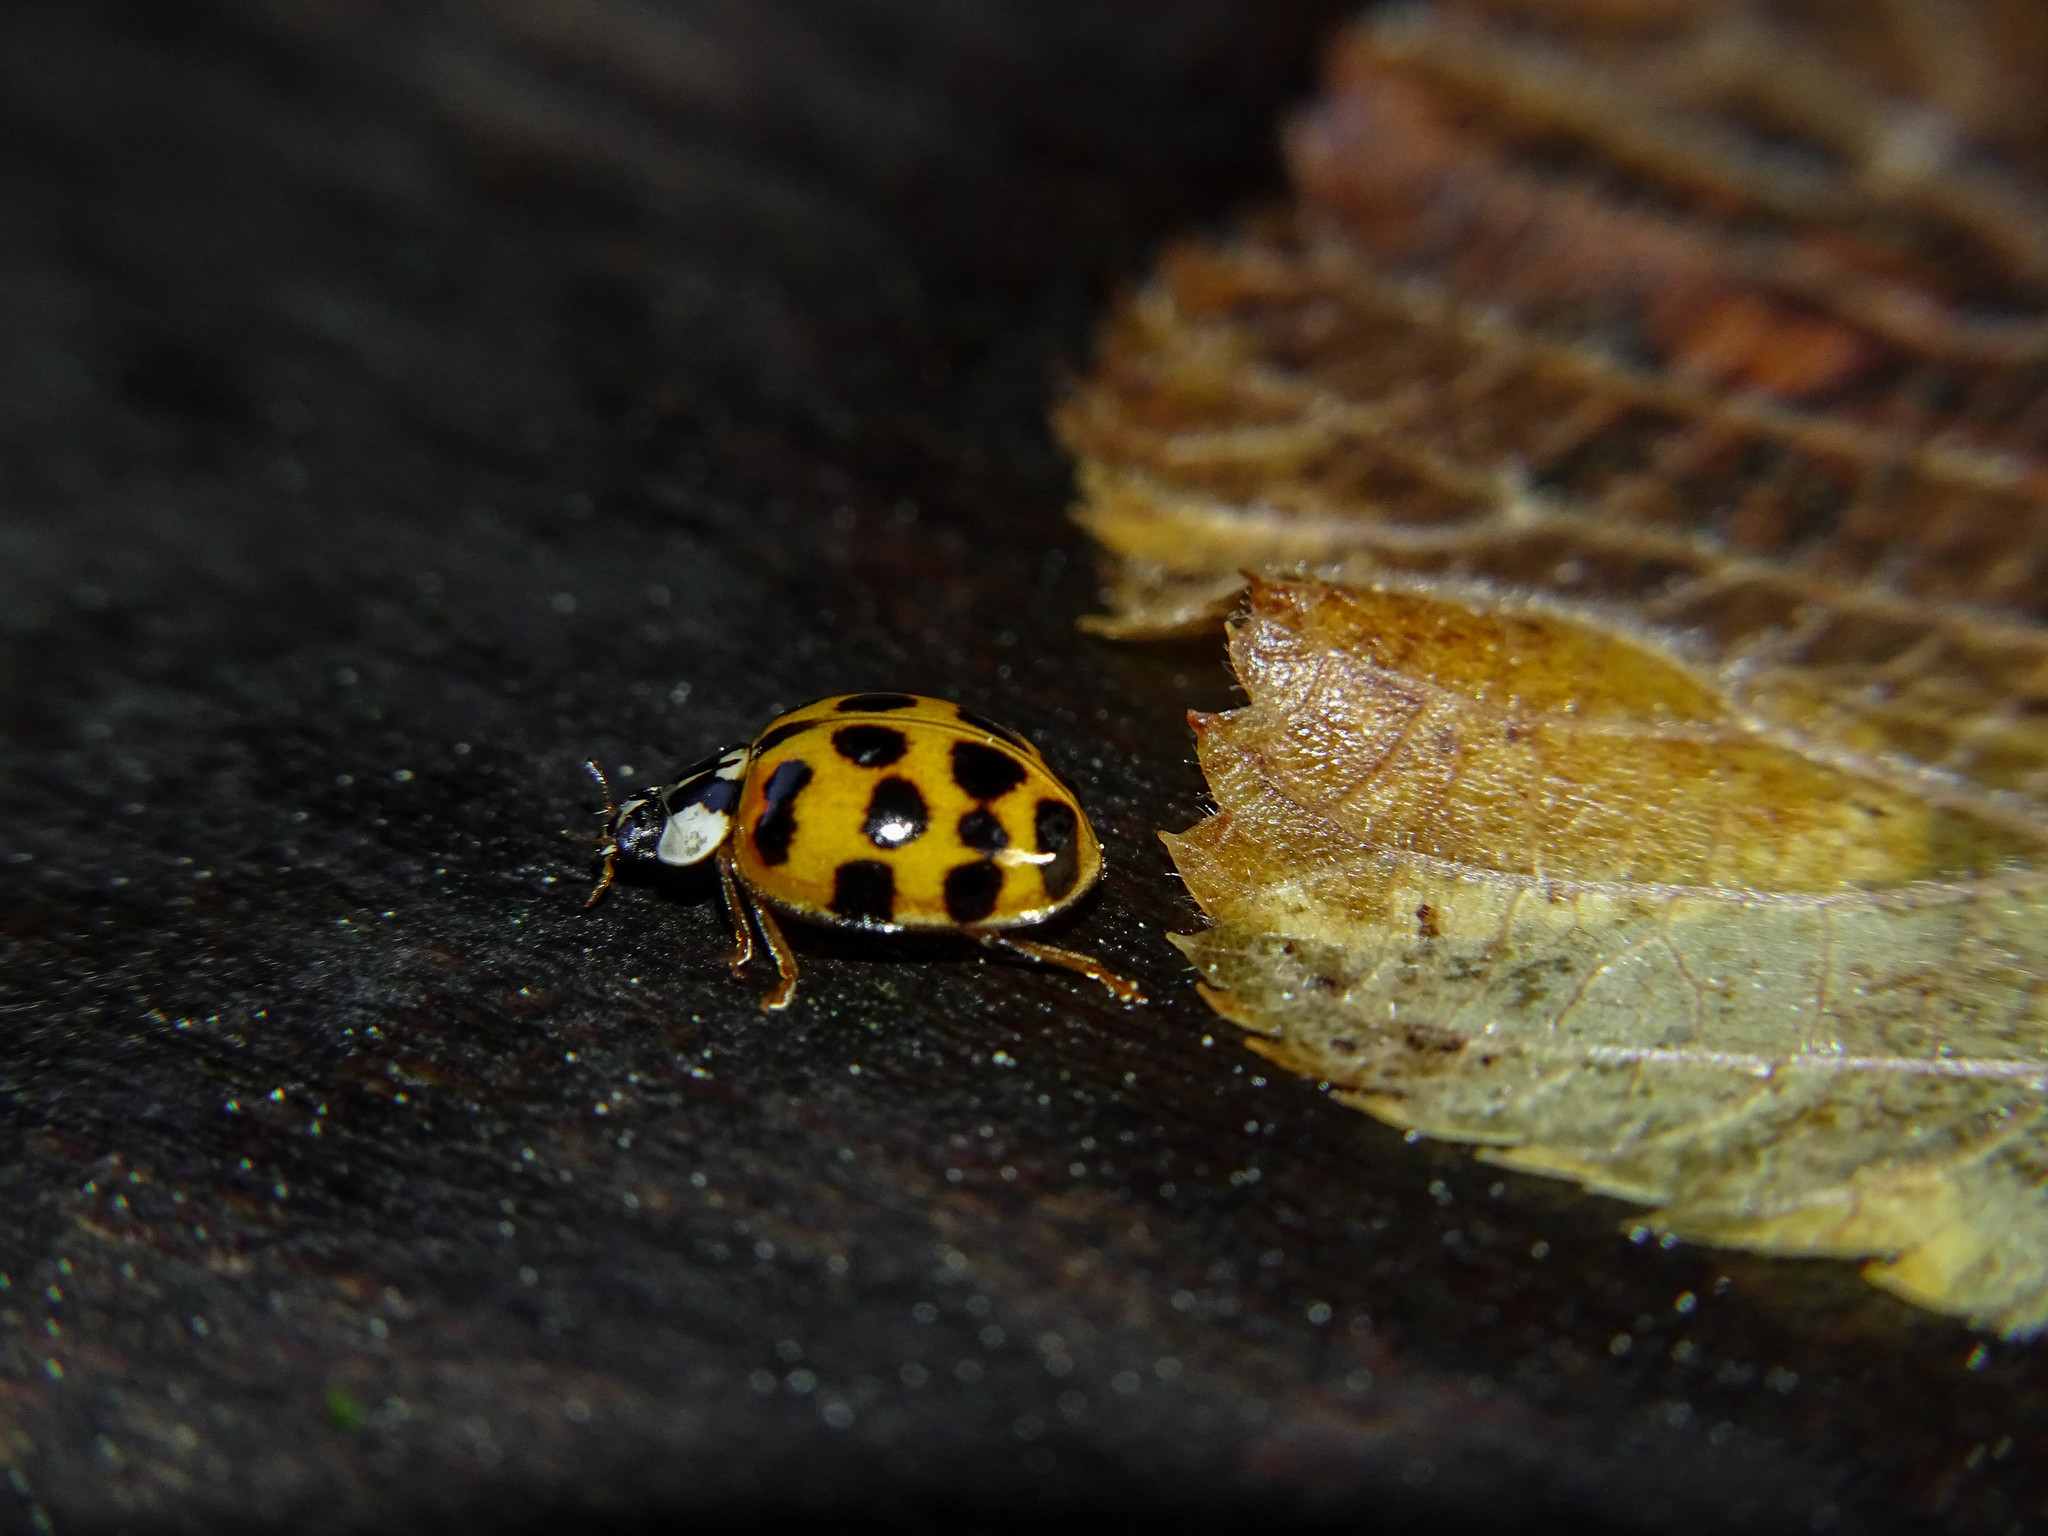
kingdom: Animalia
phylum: Arthropoda
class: Insecta
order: Coleoptera
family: Coccinellidae
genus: Harmonia
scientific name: Harmonia axyridis
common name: Harlequin ladybird
